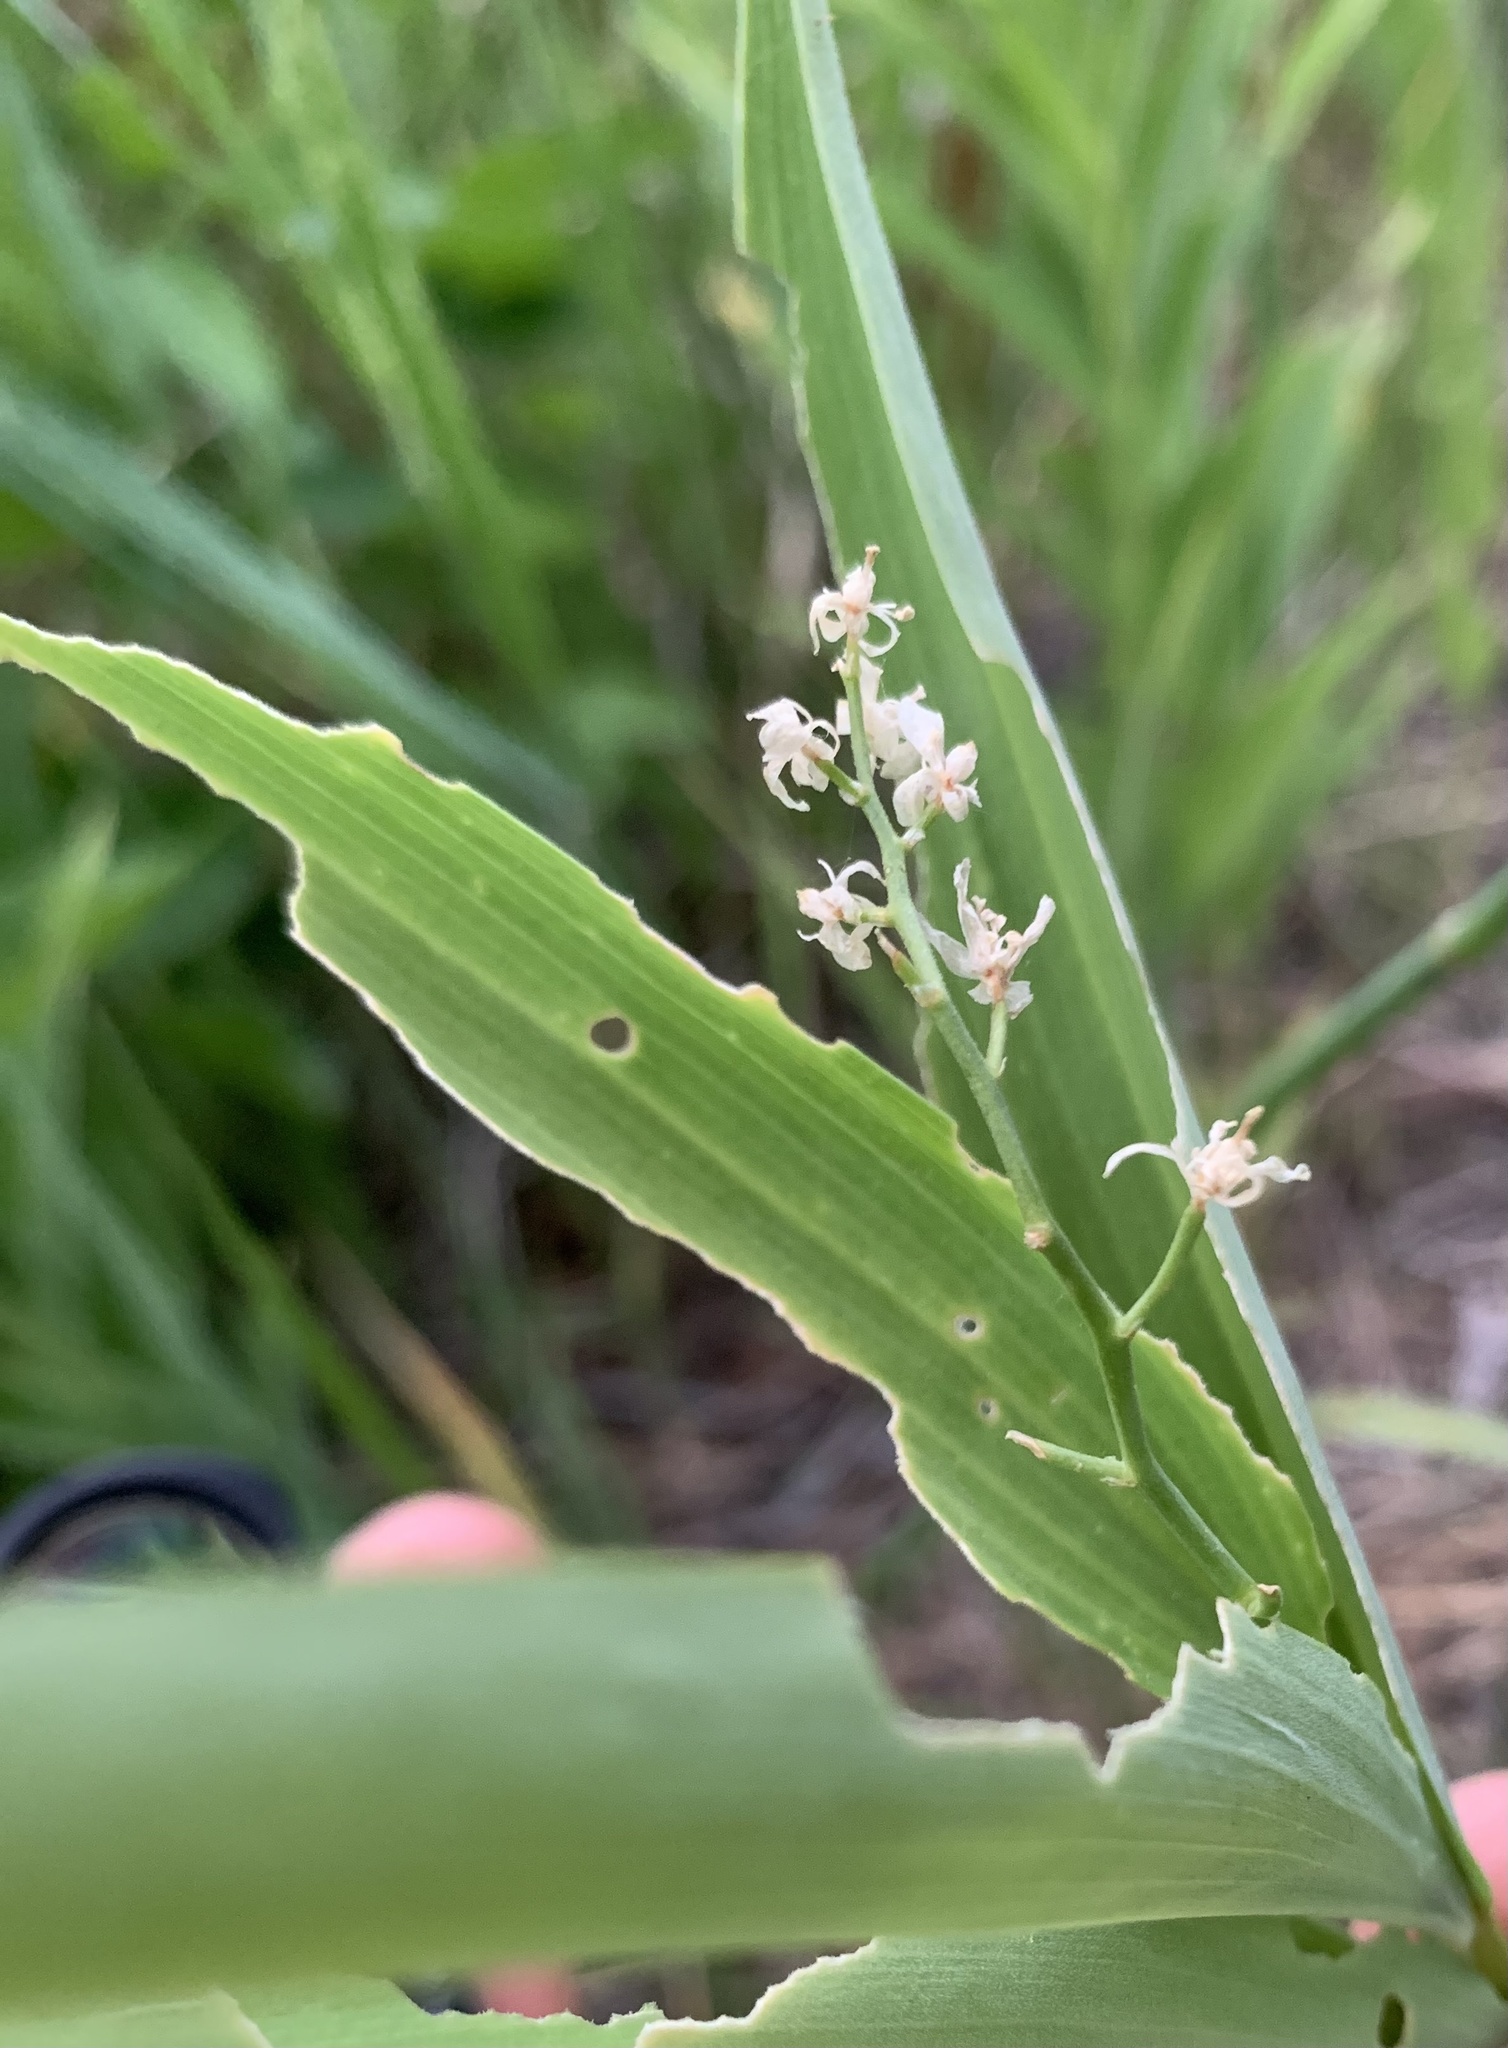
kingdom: Plantae
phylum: Tracheophyta
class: Liliopsida
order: Asparagales
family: Asparagaceae
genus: Maianthemum
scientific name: Maianthemum stellatum
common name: Little false solomon's seal
